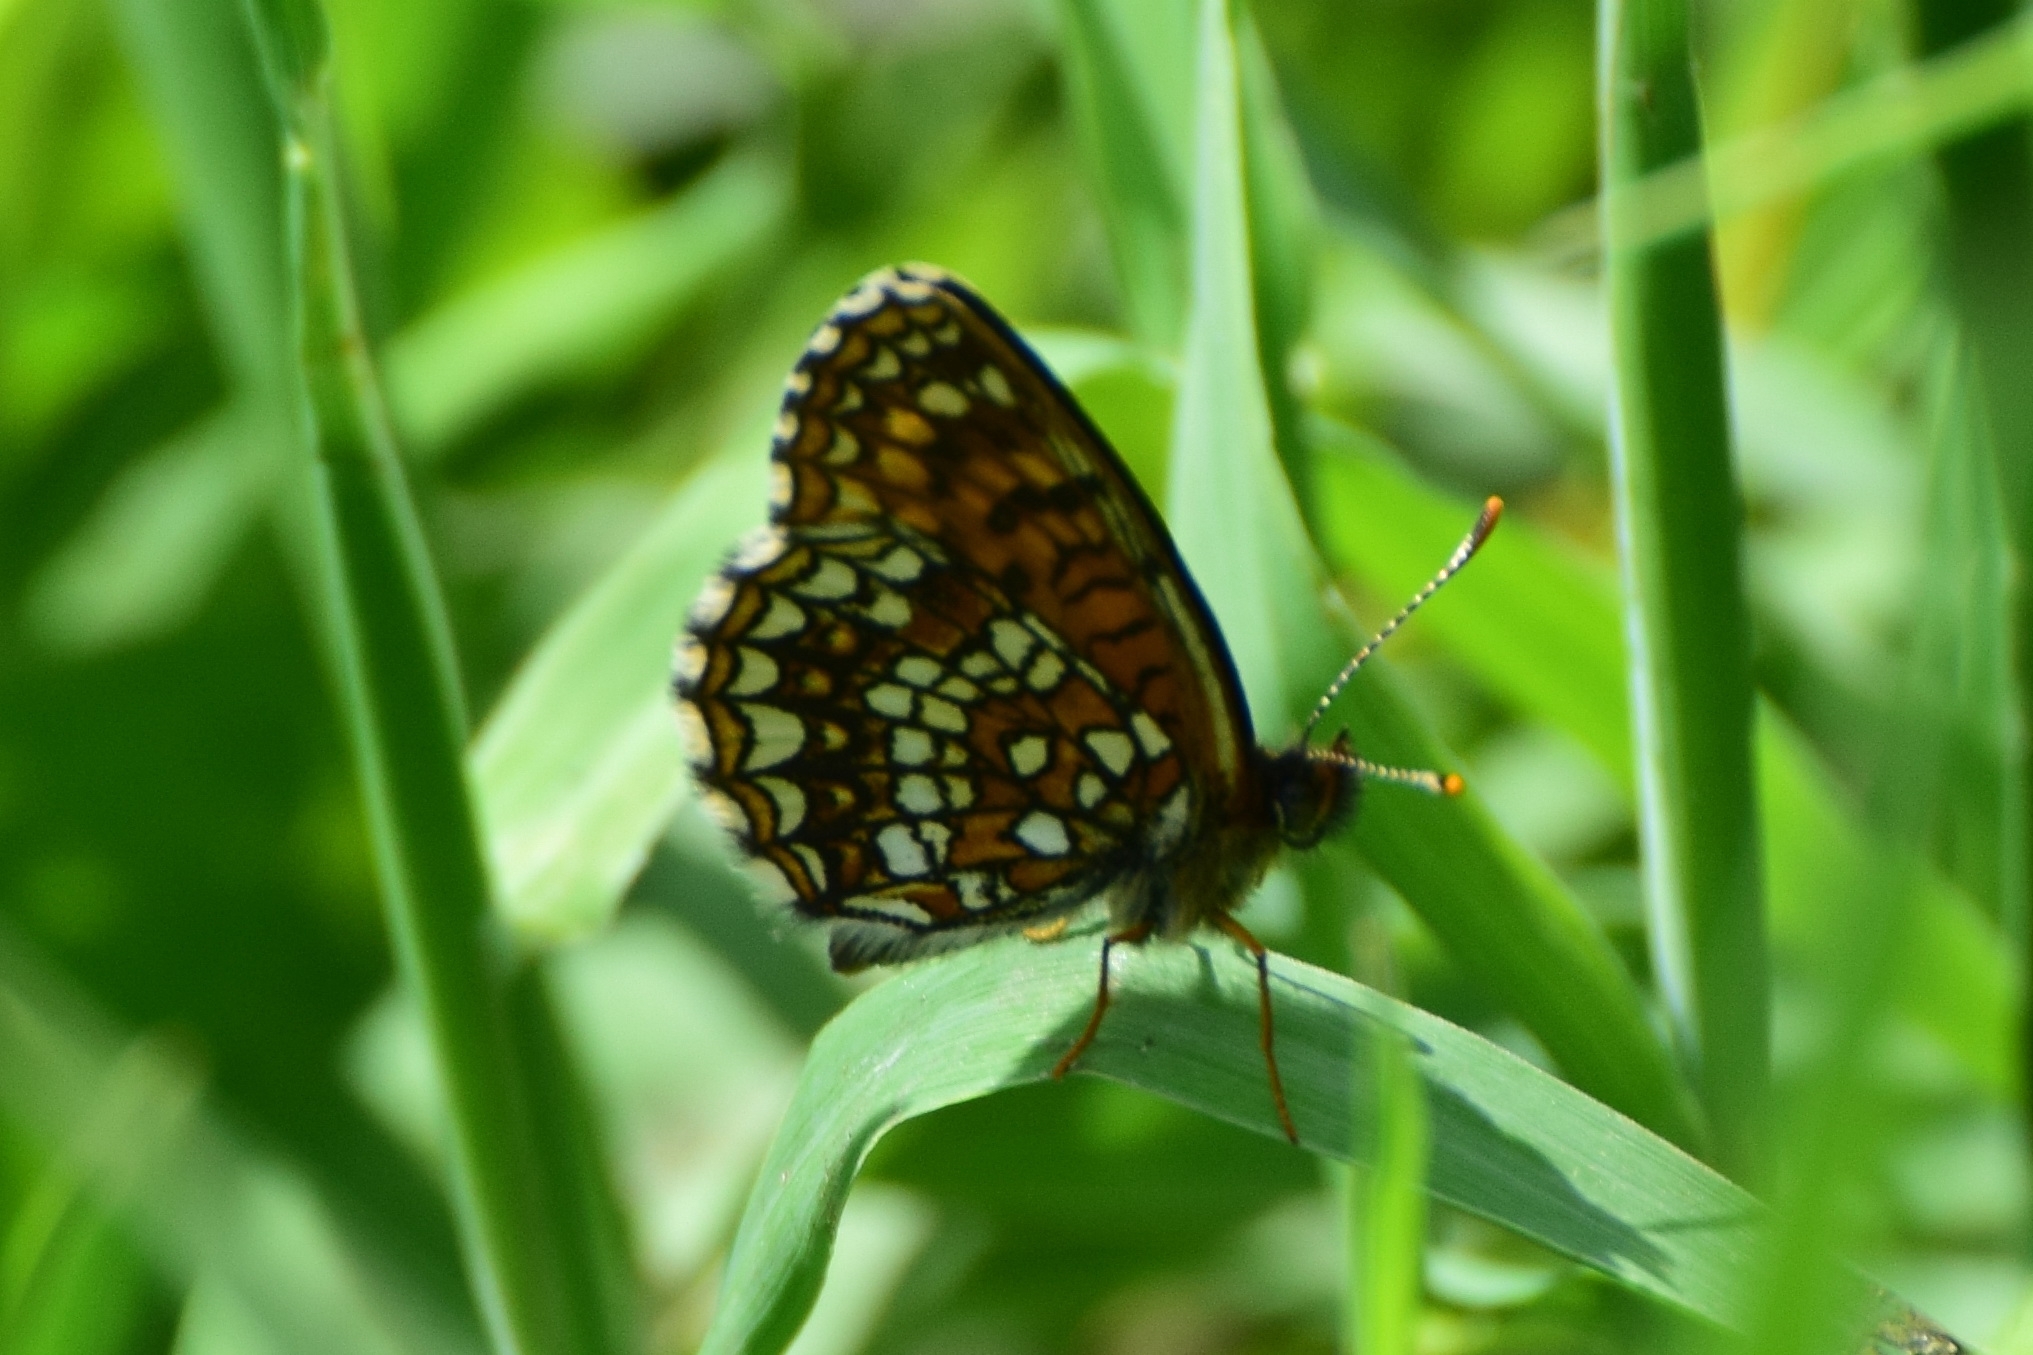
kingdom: Animalia
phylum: Arthropoda
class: Insecta
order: Lepidoptera
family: Nymphalidae
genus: Melitaea
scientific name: Melitaea diamina
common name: False heath fritillary
